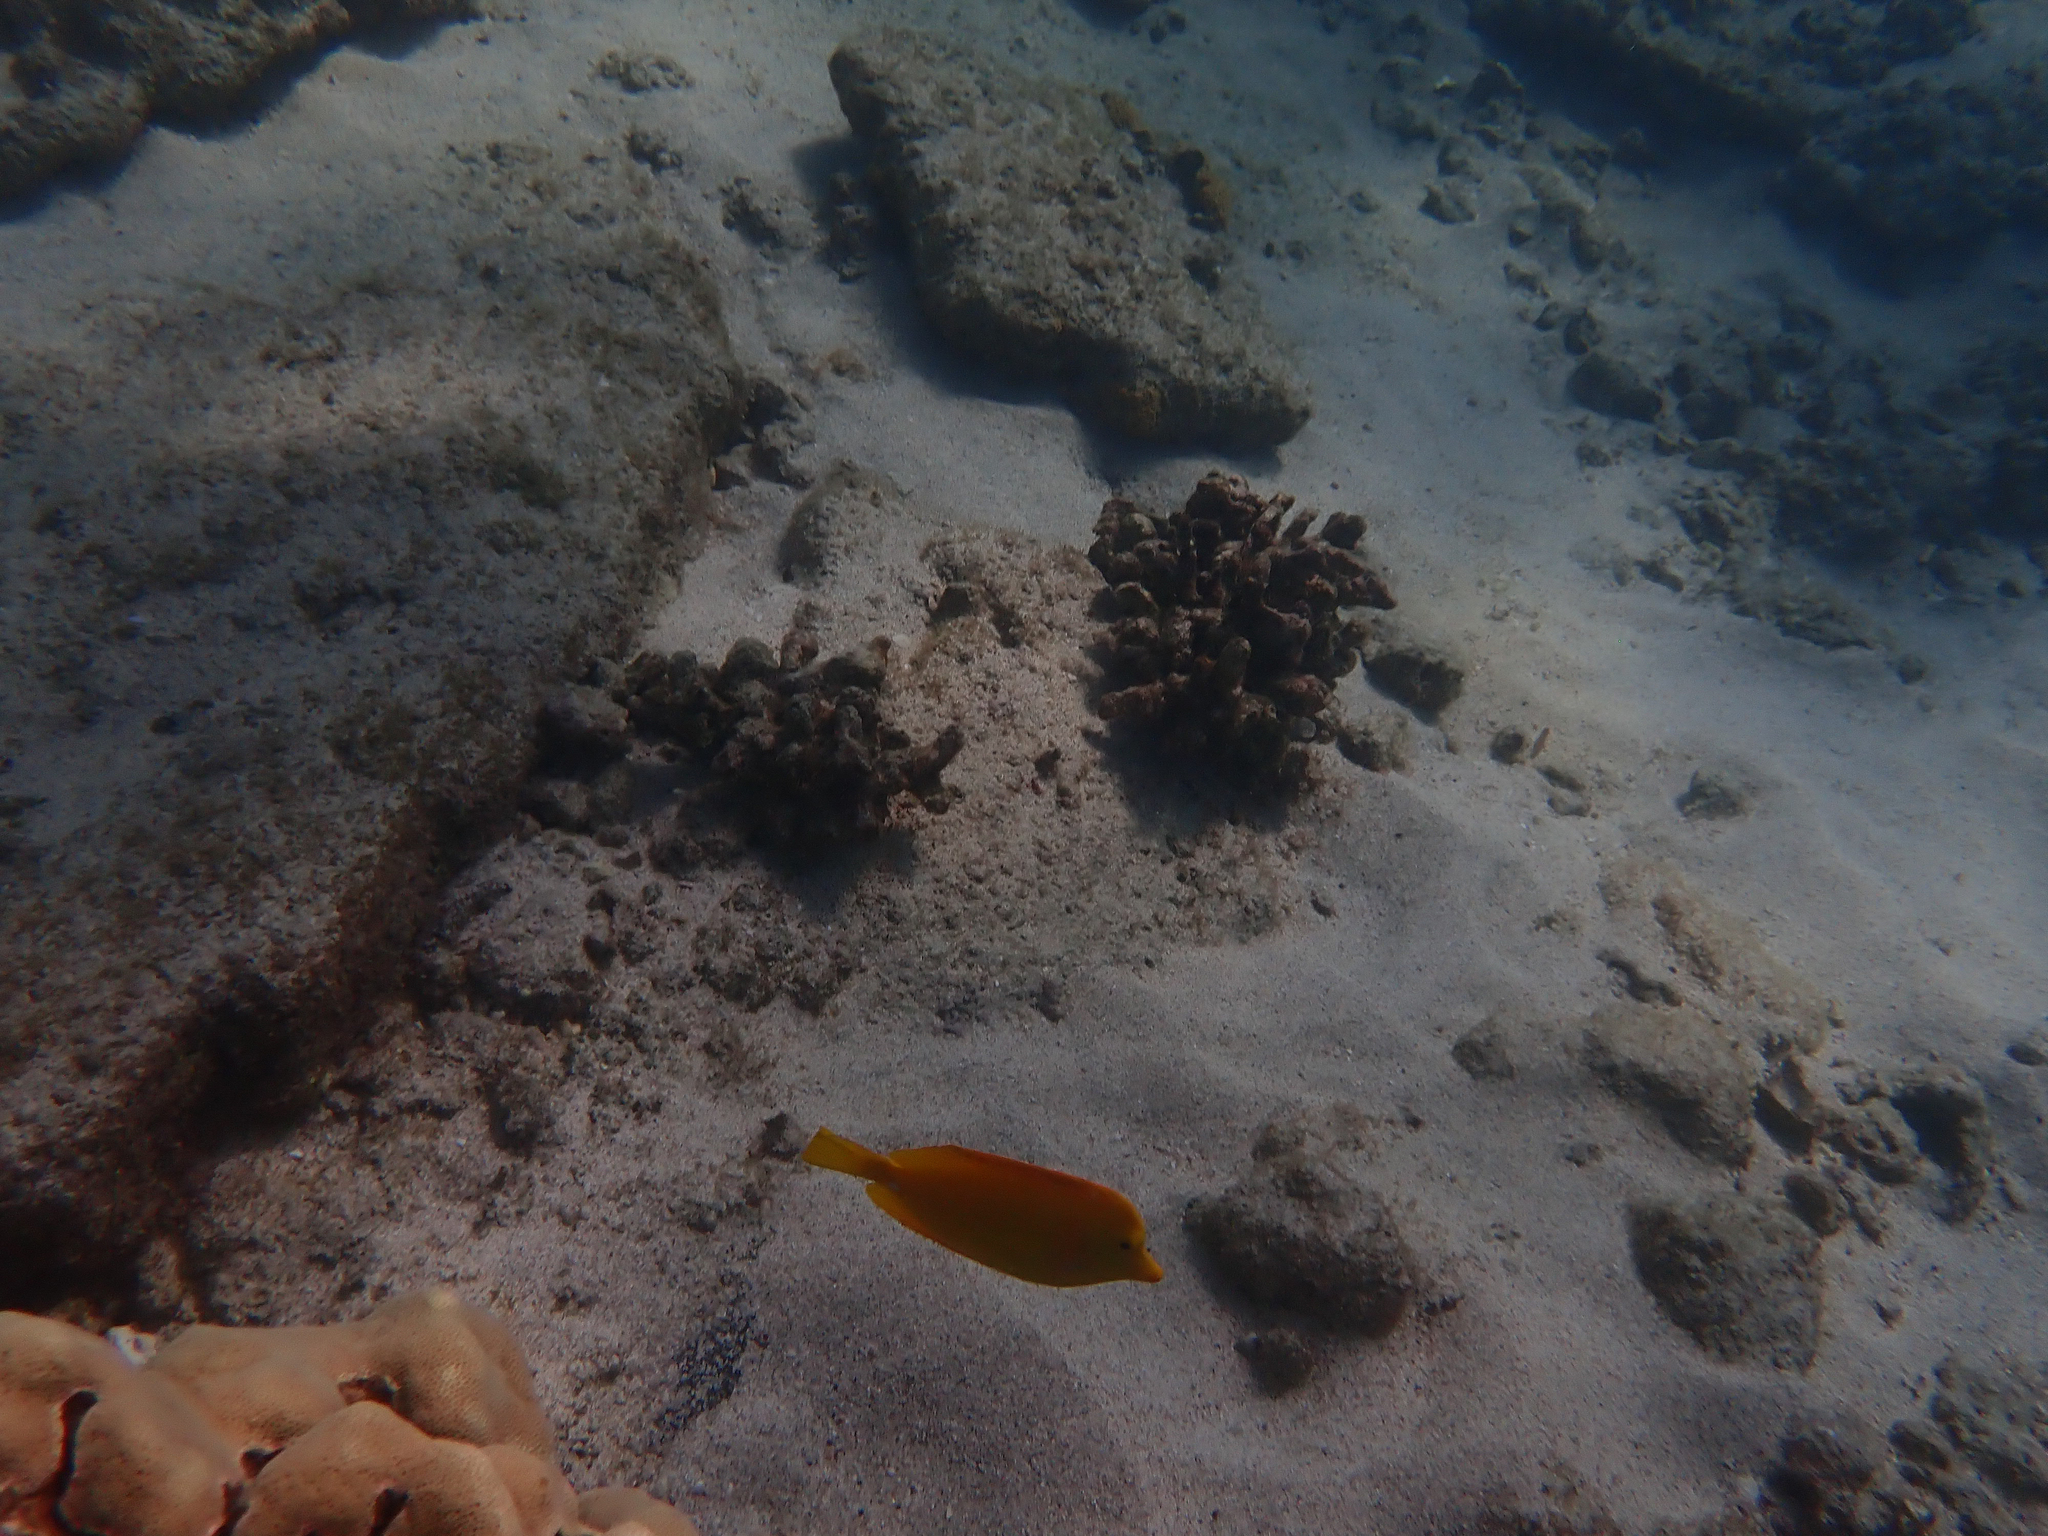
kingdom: Animalia
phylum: Chordata
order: Perciformes
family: Acanthuridae
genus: Zebrasoma
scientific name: Zebrasoma flavescens
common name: Yellow tang
